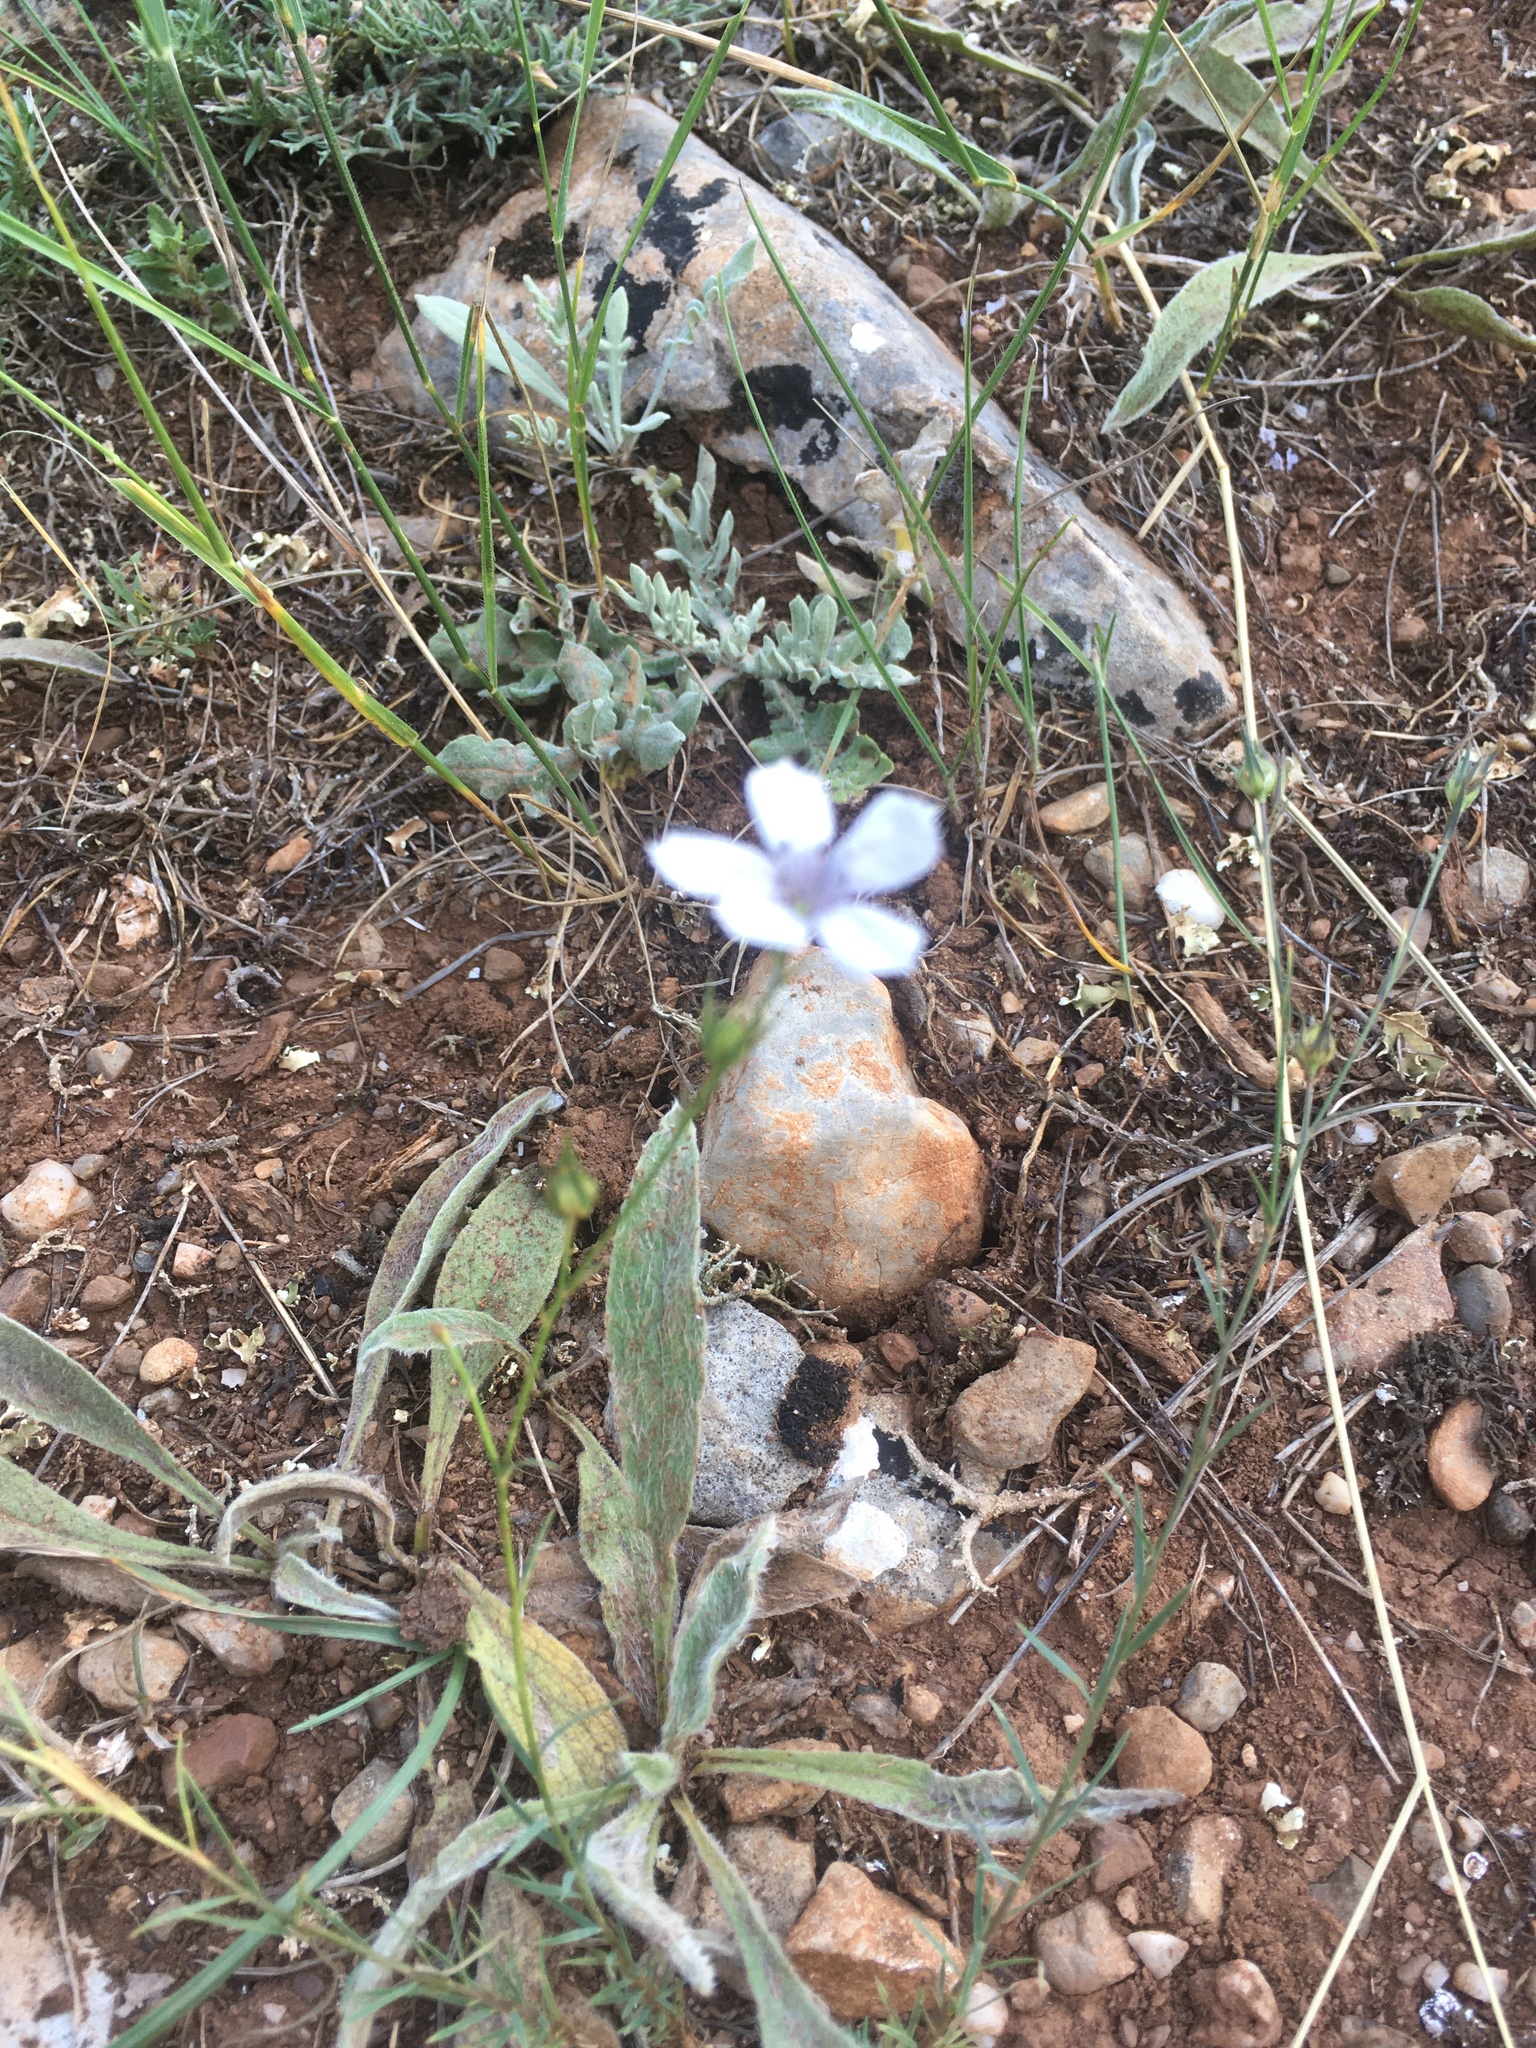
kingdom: Plantae
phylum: Tracheophyta
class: Magnoliopsida
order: Malpighiales
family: Linaceae
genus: Linum
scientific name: Linum tenuifolium
